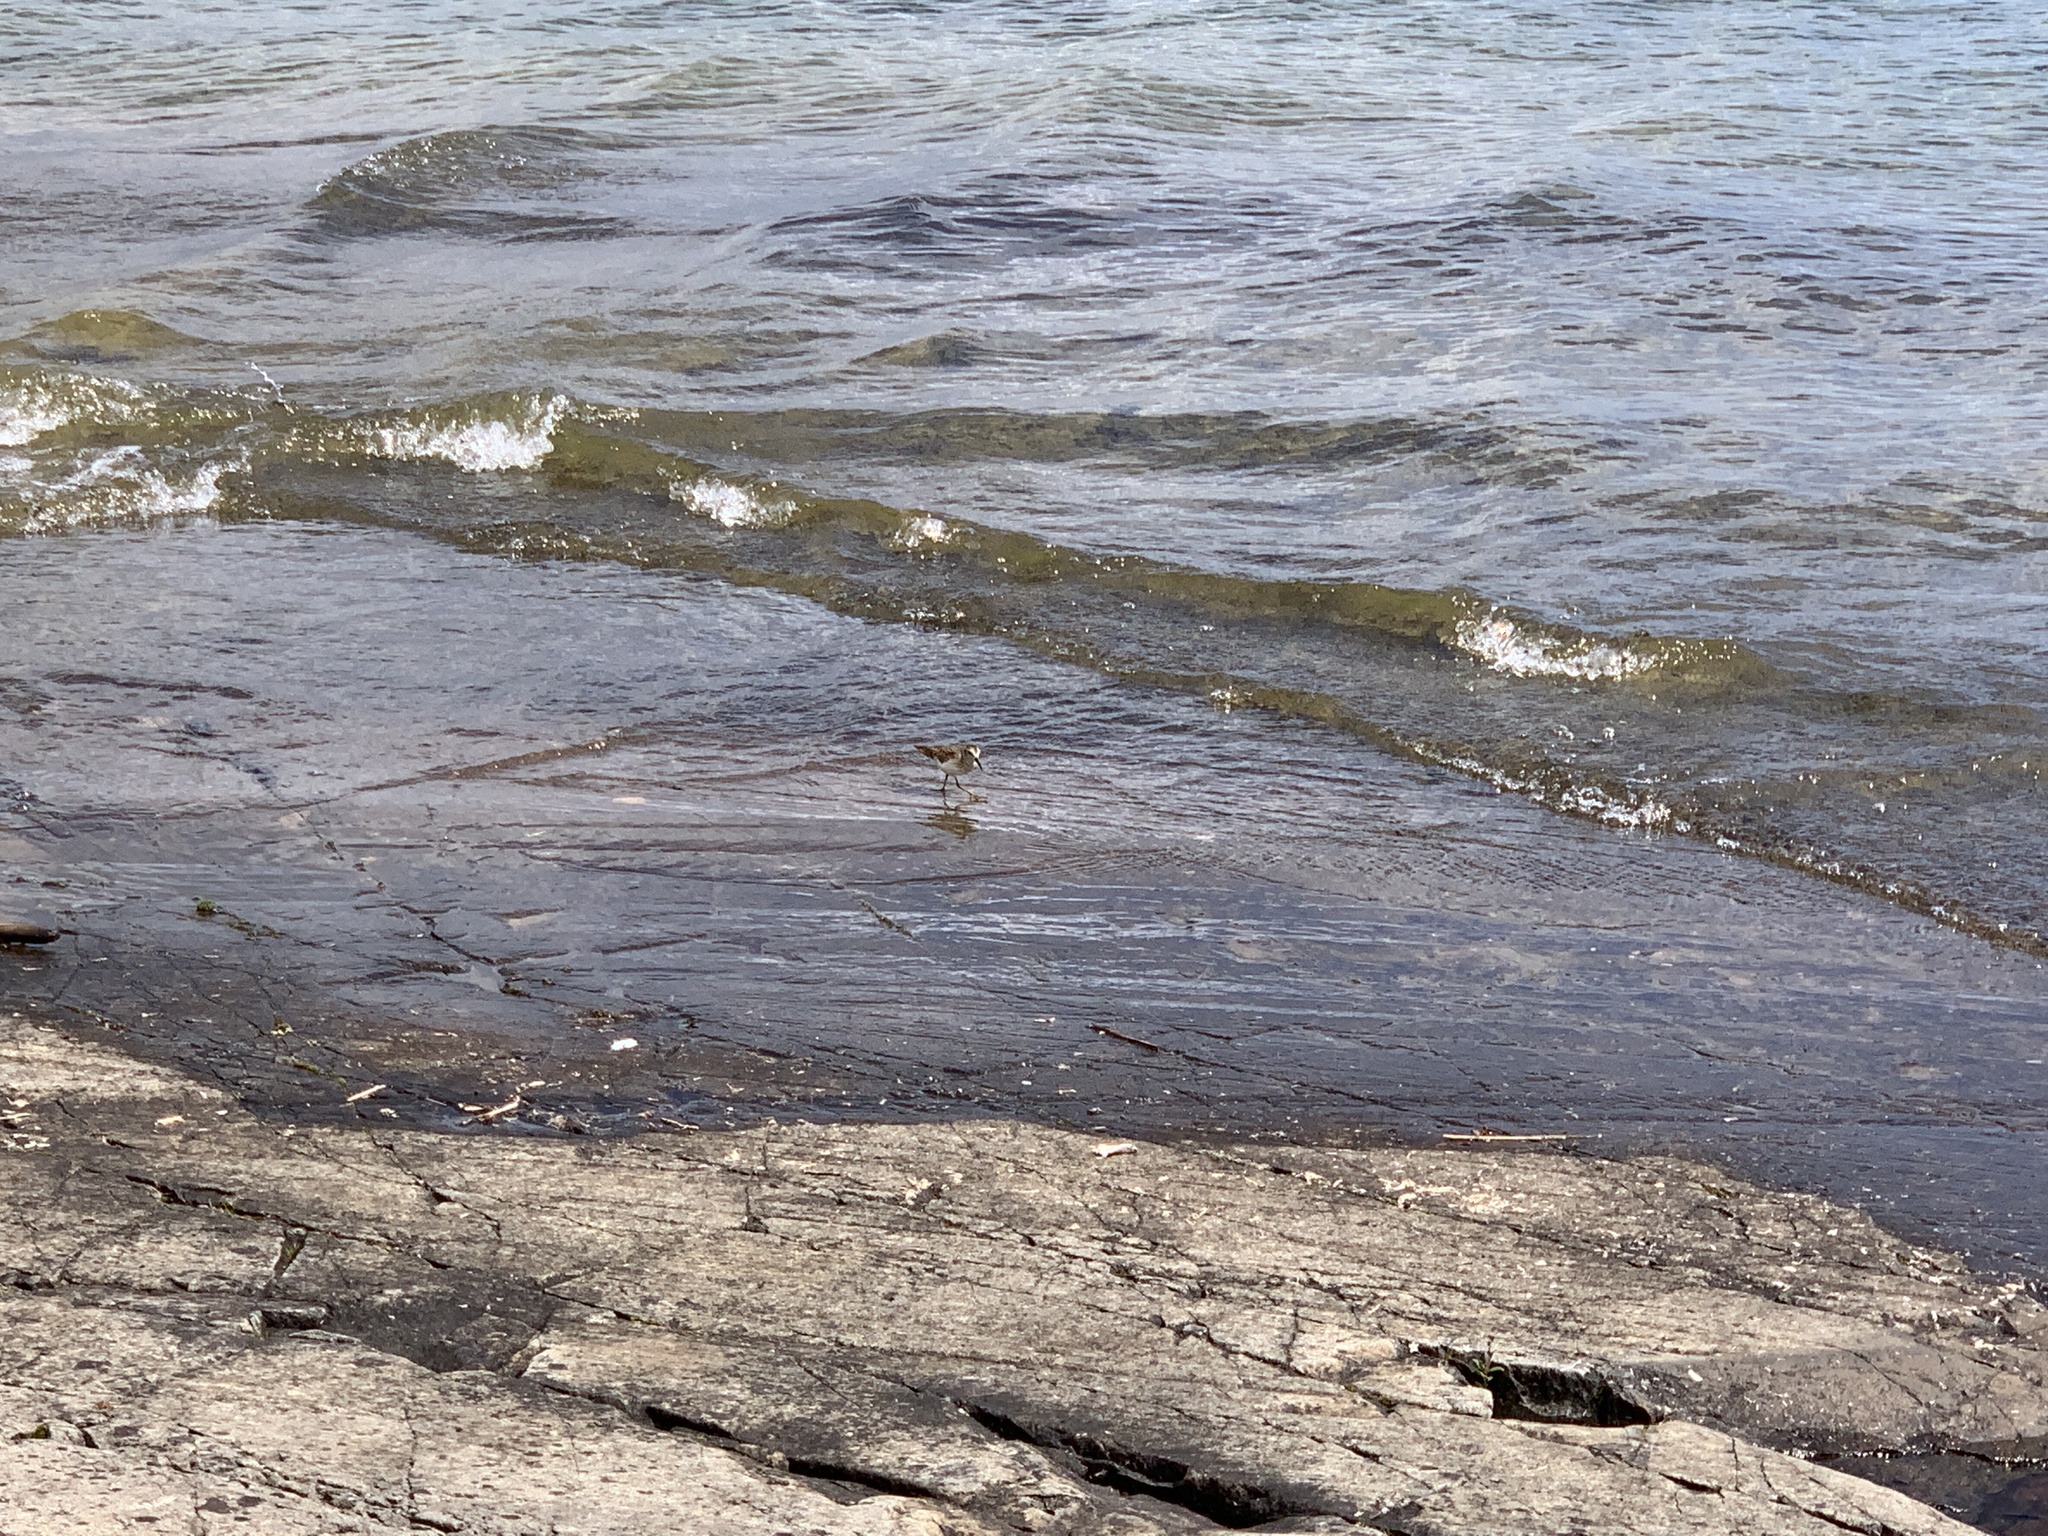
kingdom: Animalia
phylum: Chordata
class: Aves
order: Charadriiformes
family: Scolopacidae
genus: Calidris
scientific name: Calidris minutilla
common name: Least sandpiper
